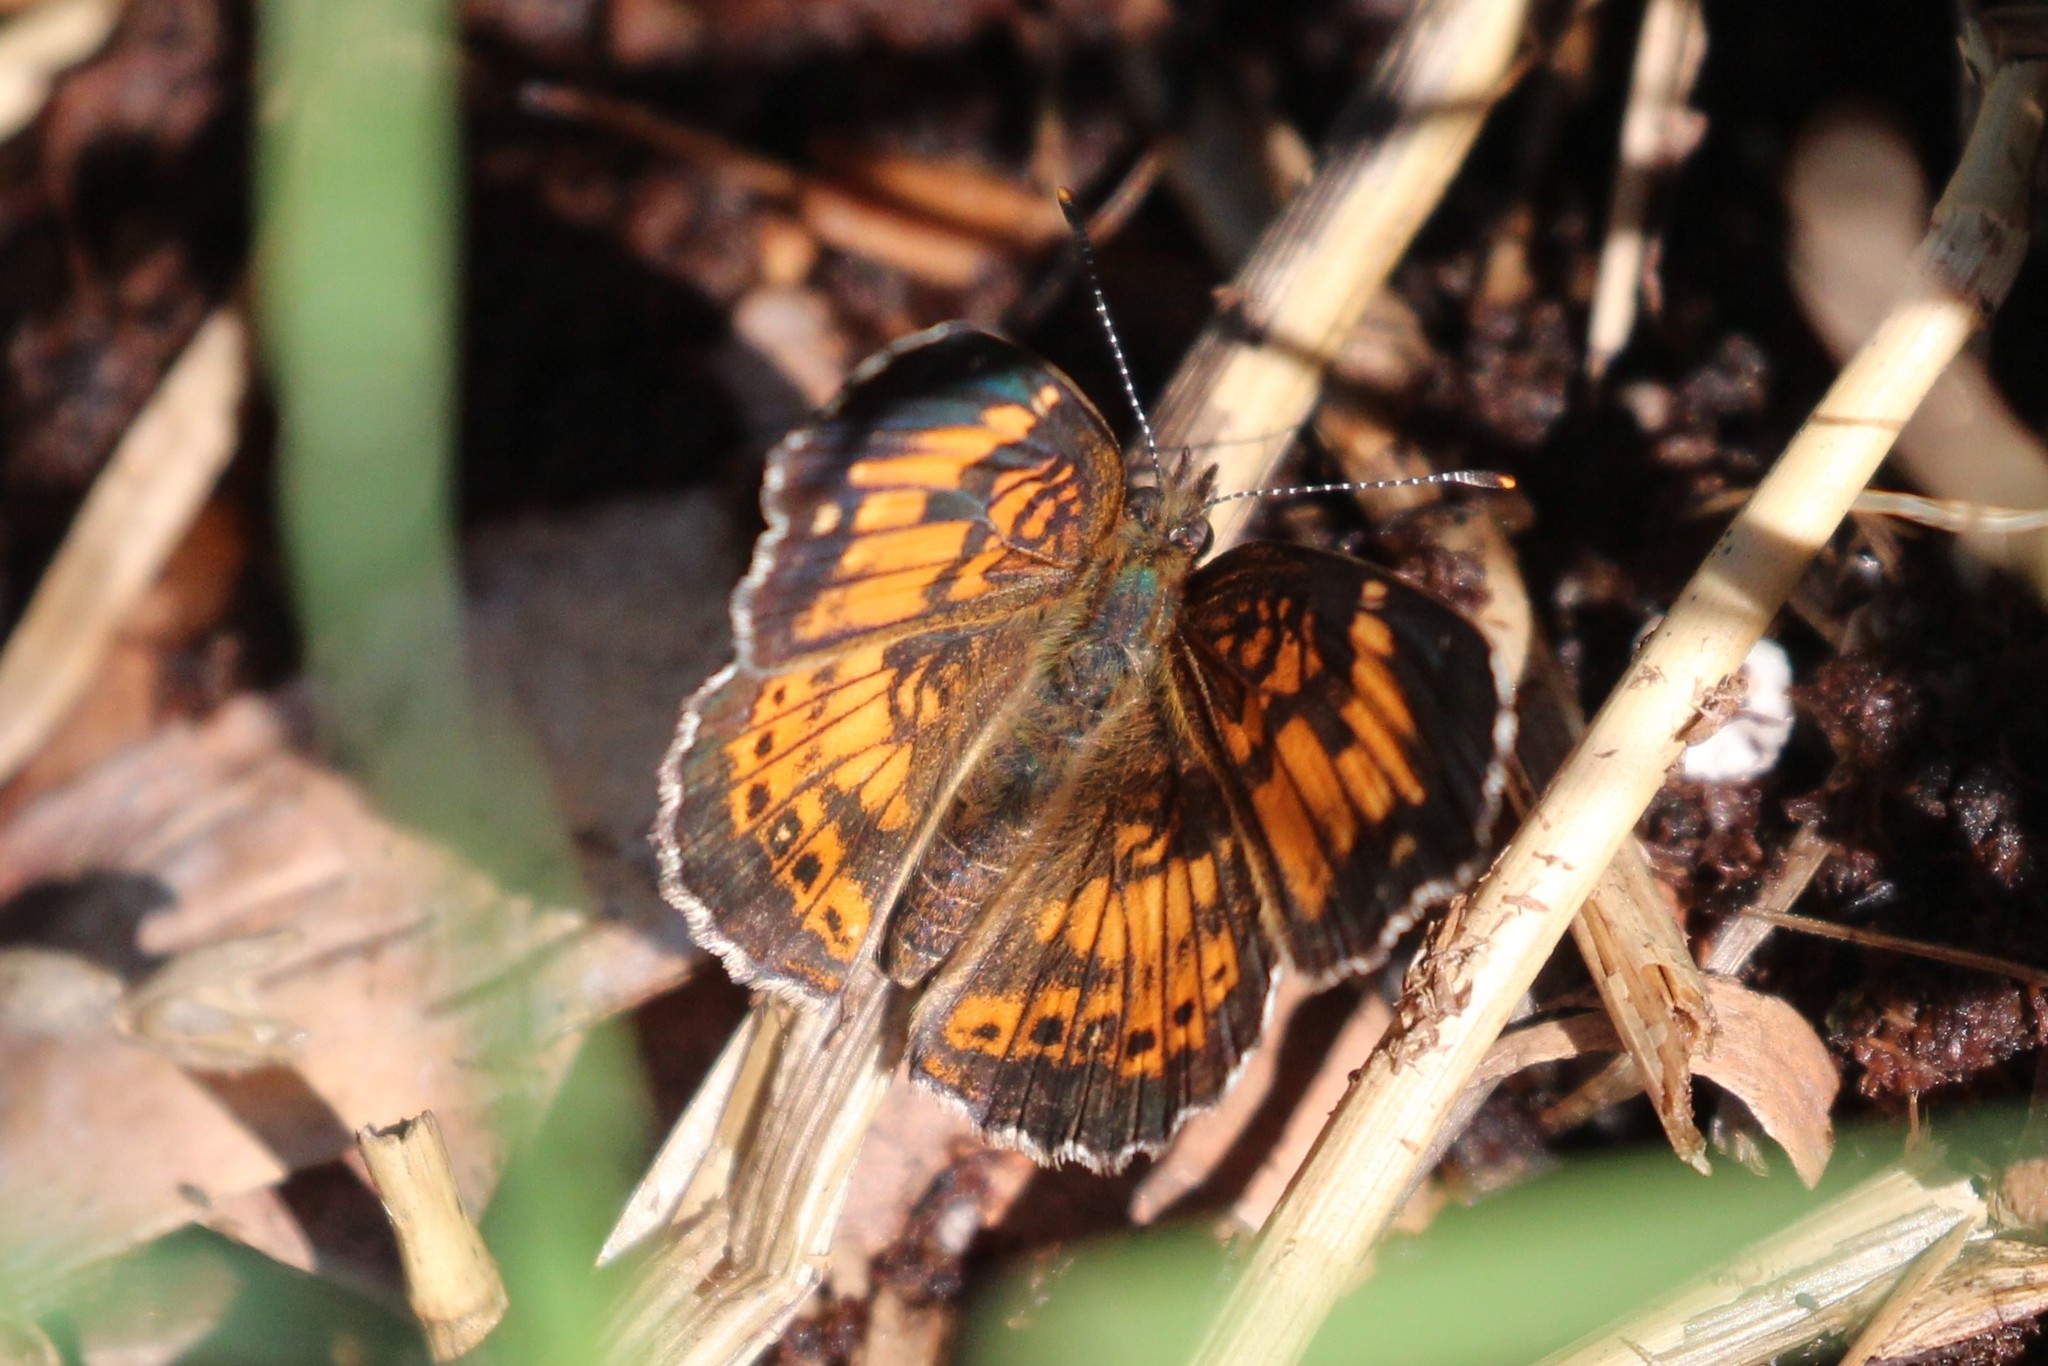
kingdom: Animalia
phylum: Arthropoda
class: Insecta
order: Lepidoptera
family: Nymphalidae
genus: Chlosyne
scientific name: Chlosyne nycteis
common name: Silvery checkerspot
